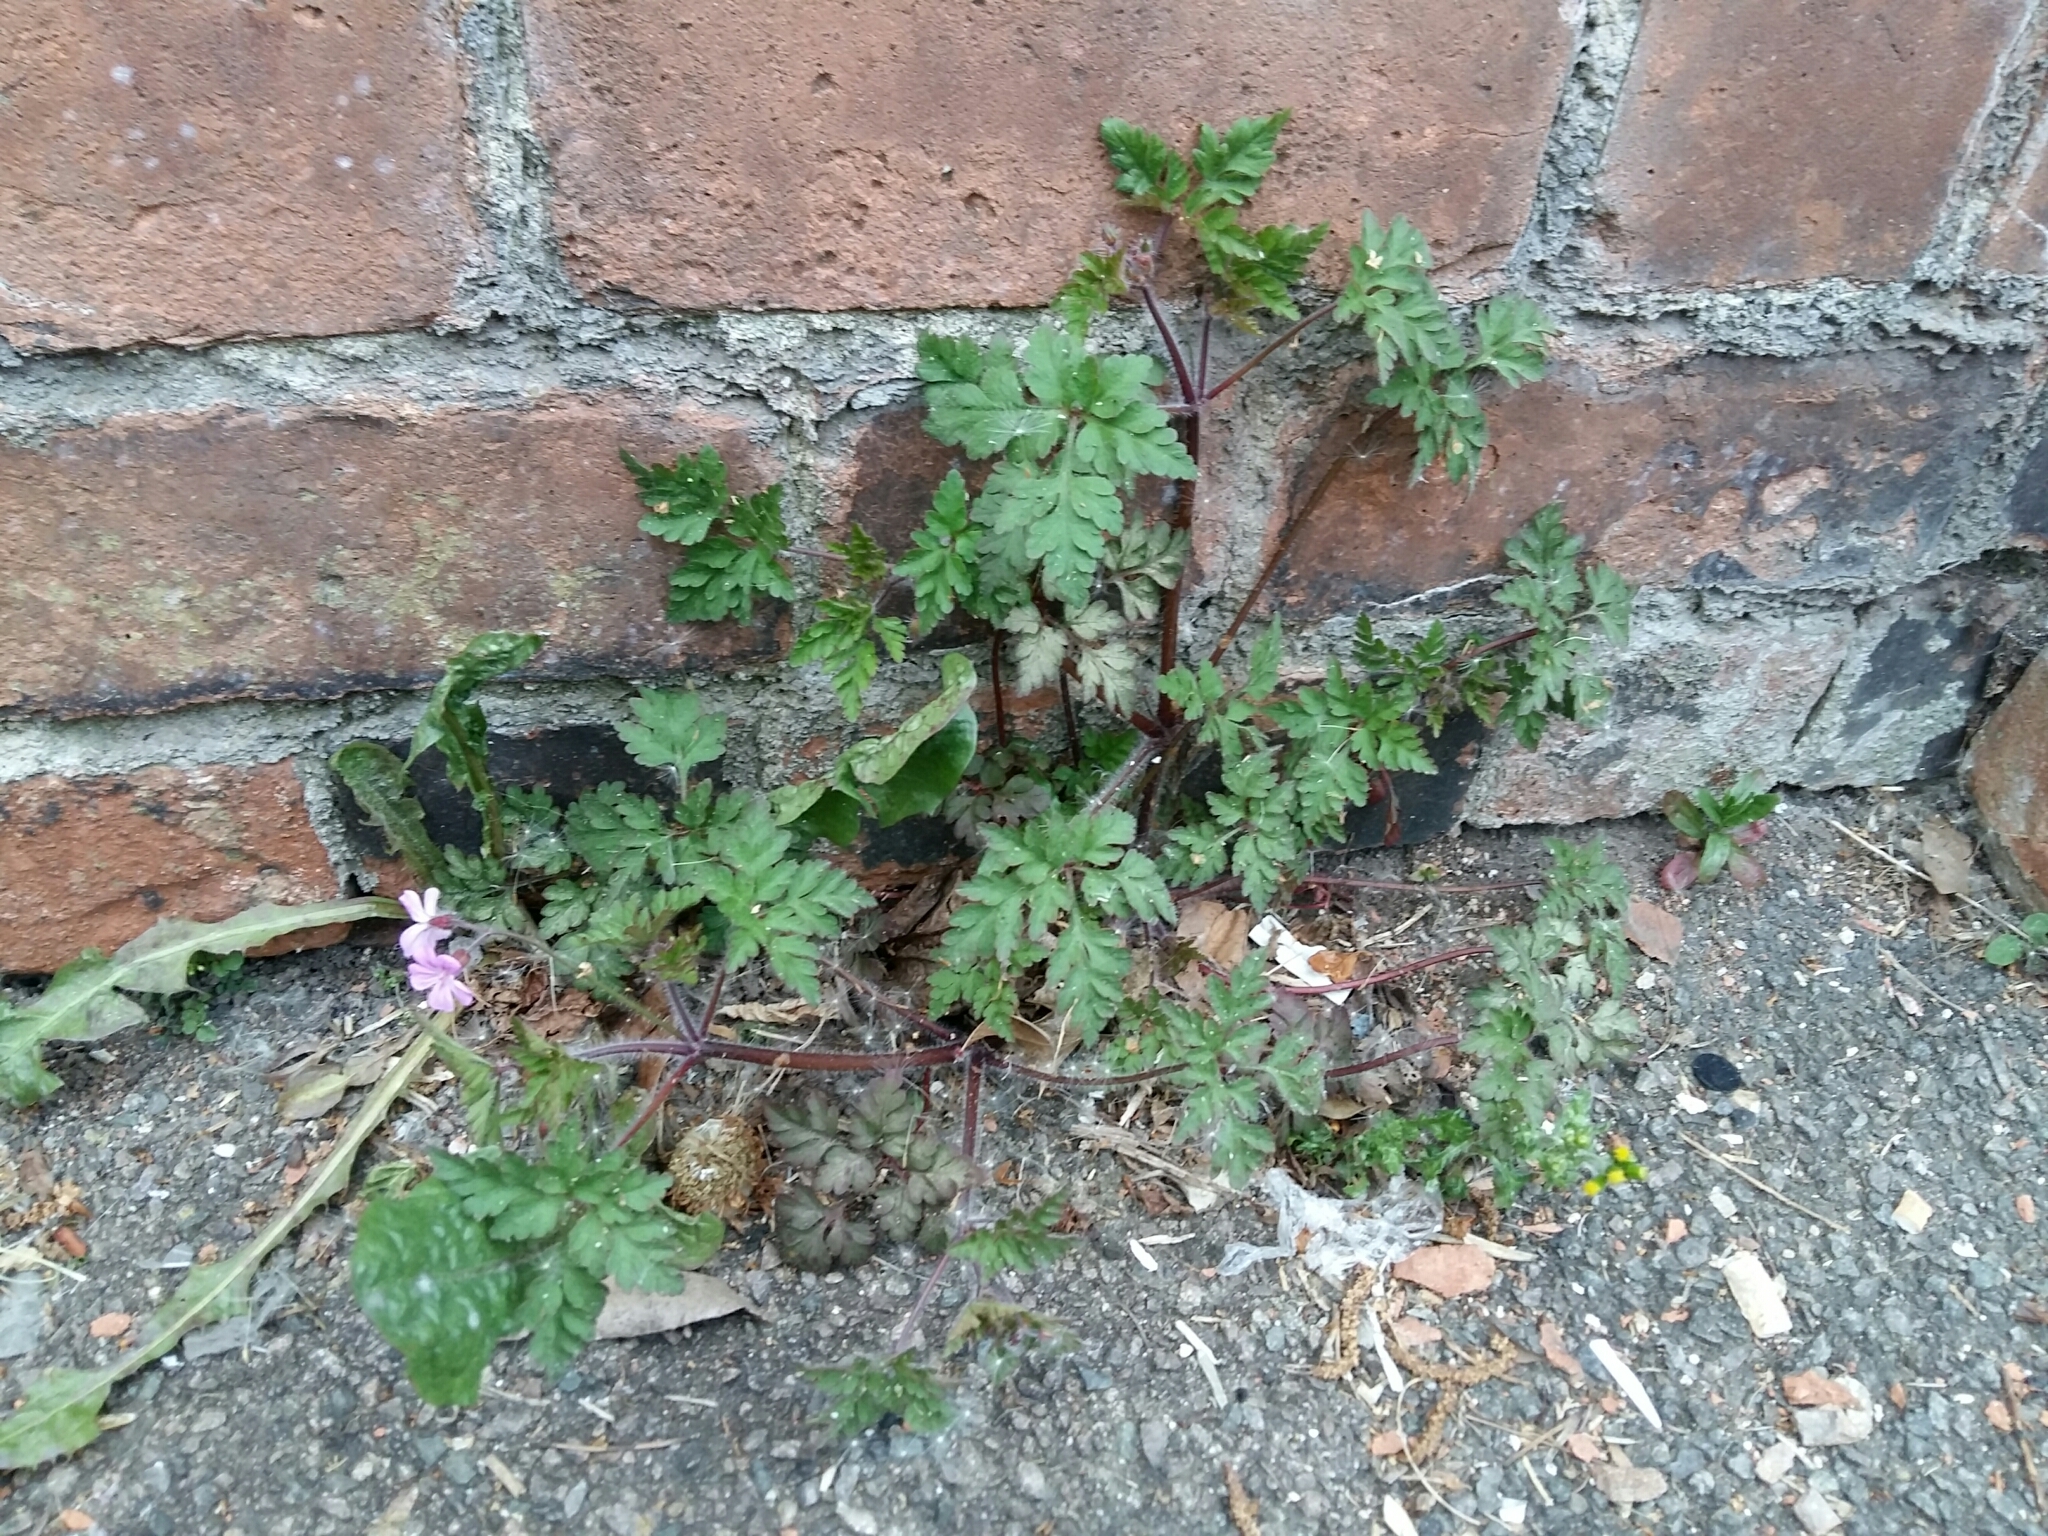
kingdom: Plantae
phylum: Tracheophyta
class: Magnoliopsida
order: Geraniales
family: Geraniaceae
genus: Geranium
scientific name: Geranium robertianum
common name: Herb-robert
